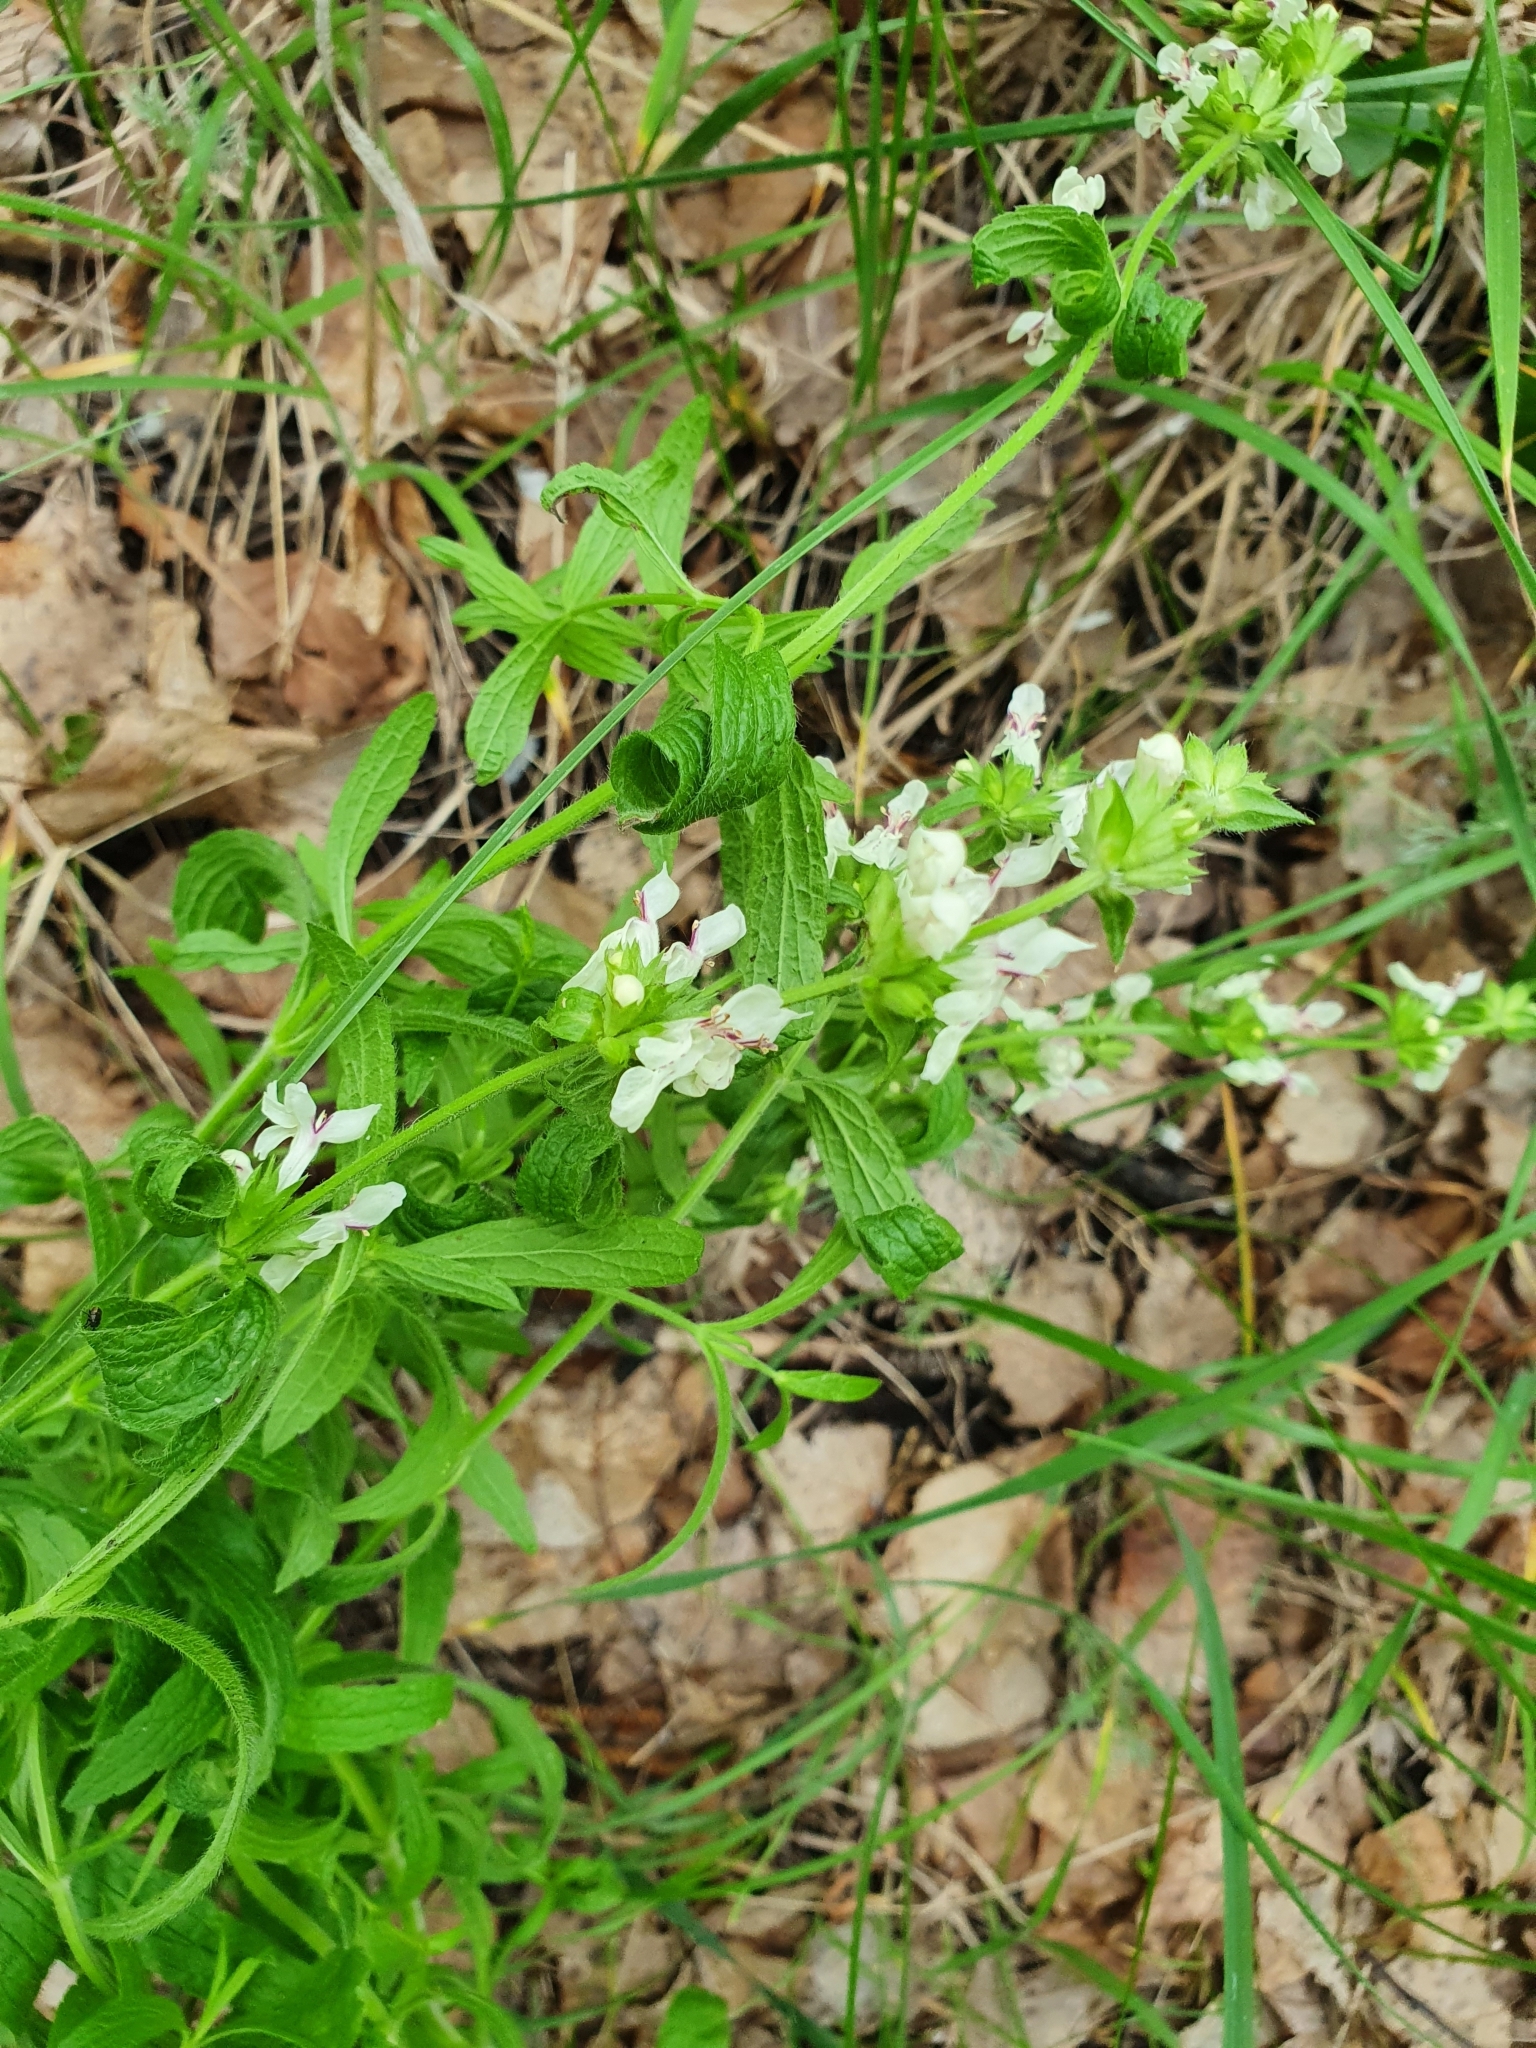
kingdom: Plantae
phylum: Tracheophyta
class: Magnoliopsida
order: Lamiales
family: Lamiaceae
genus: Stachys
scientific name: Stachys recta
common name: Perennial yellow-woundwort
